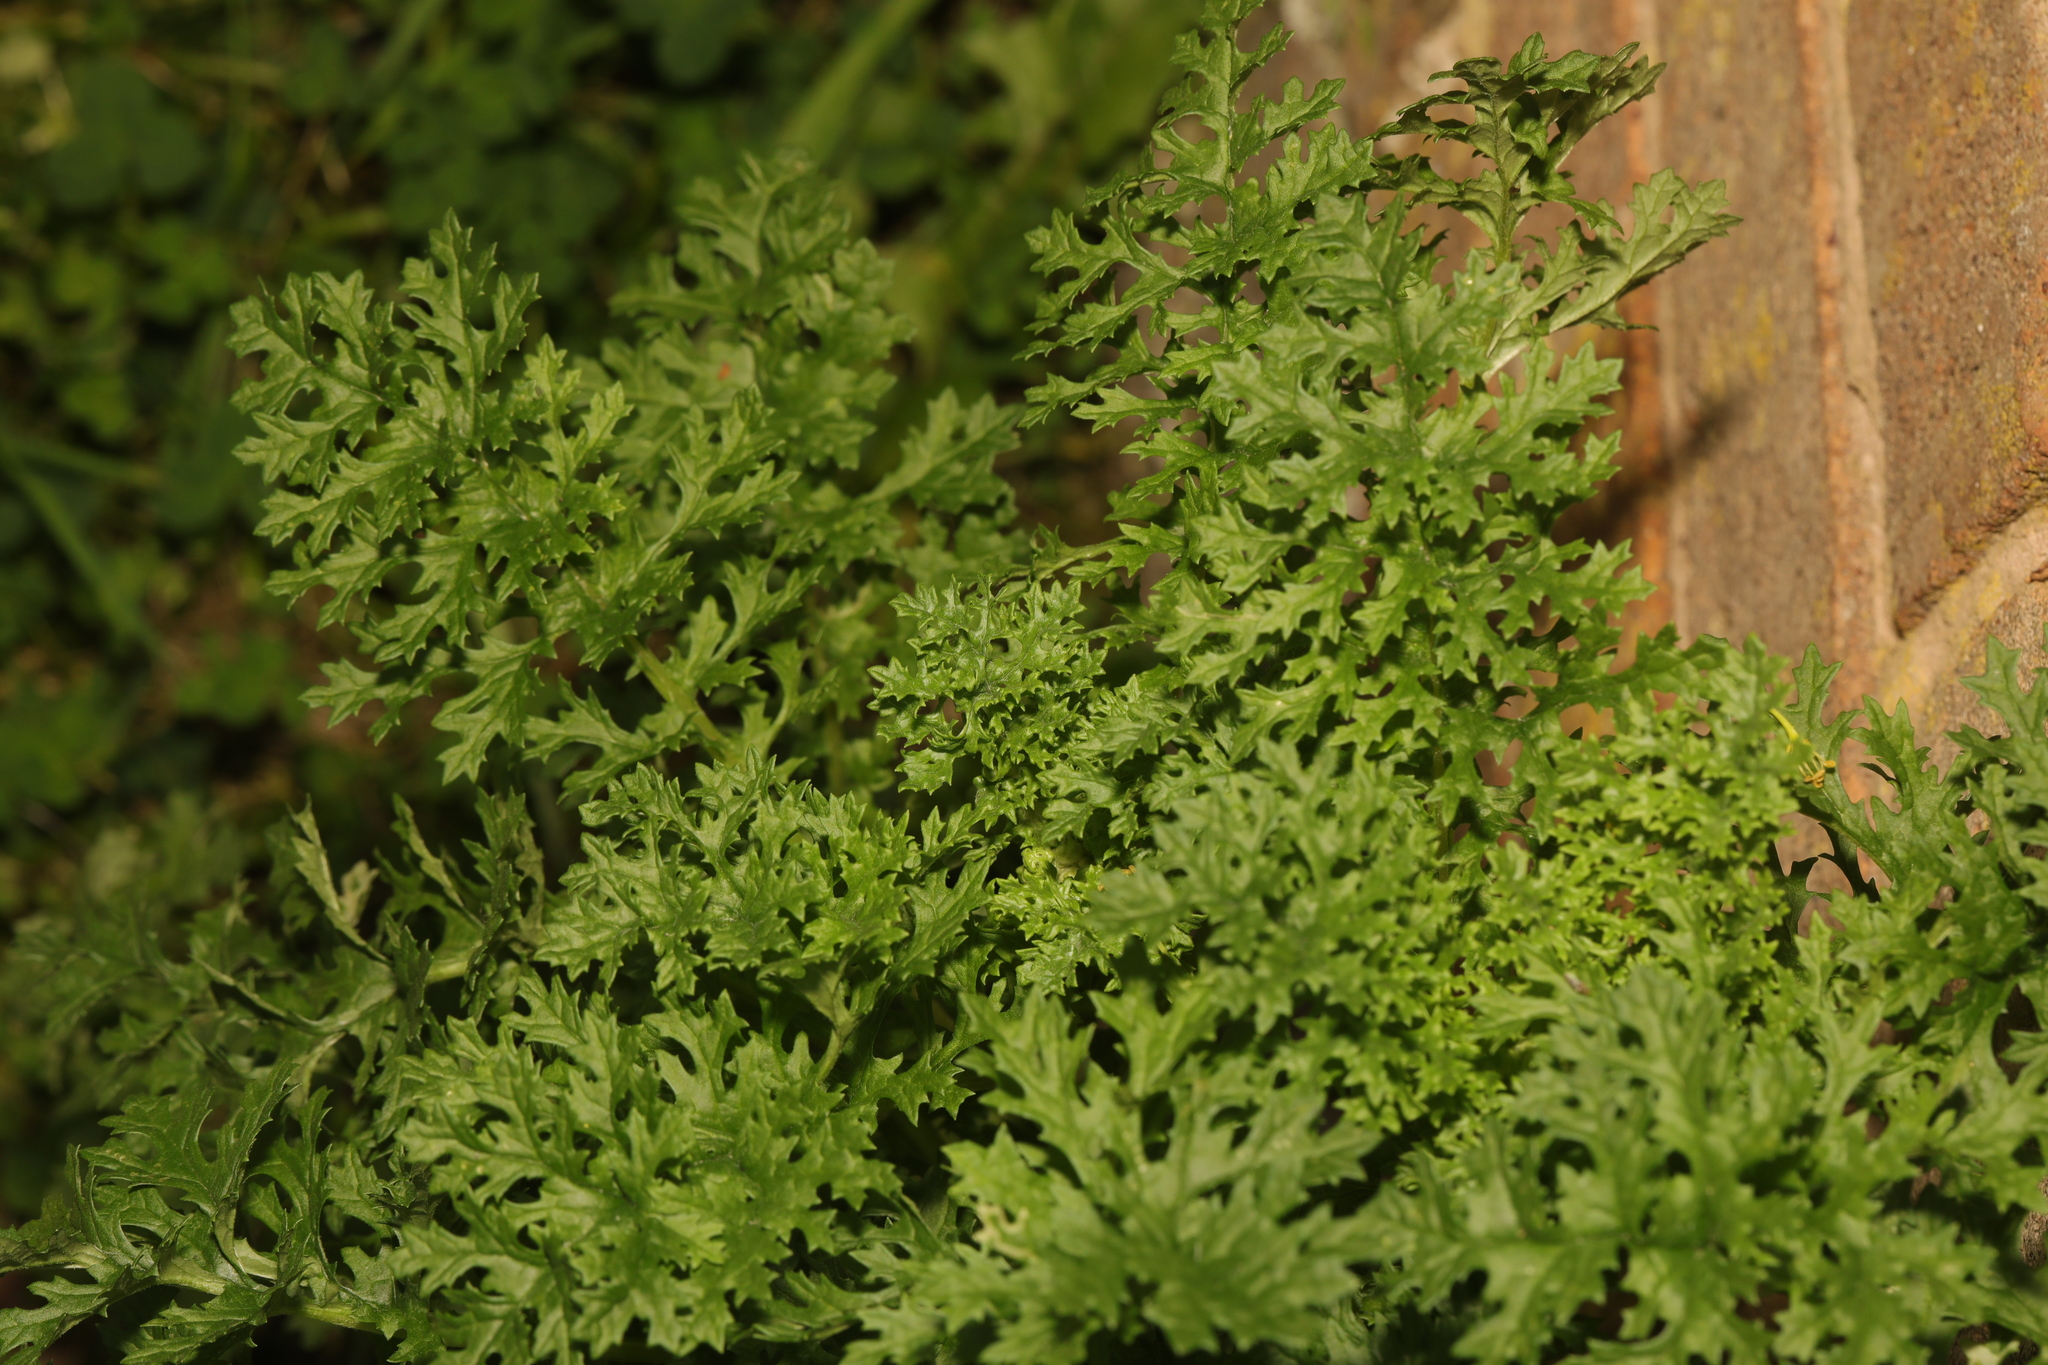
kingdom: Plantae
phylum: Tracheophyta
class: Magnoliopsida
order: Asterales
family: Asteraceae
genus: Jacobaea
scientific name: Jacobaea vulgaris
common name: Stinking willie
